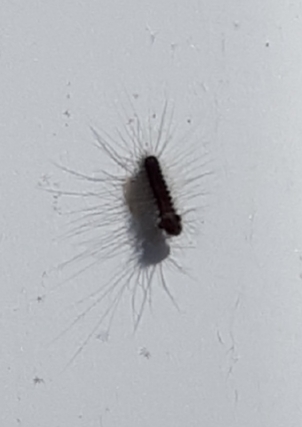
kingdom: Animalia
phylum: Arthropoda
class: Insecta
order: Lepidoptera
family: Erebidae
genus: Lymantria
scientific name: Lymantria dispar
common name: Gypsy moth
